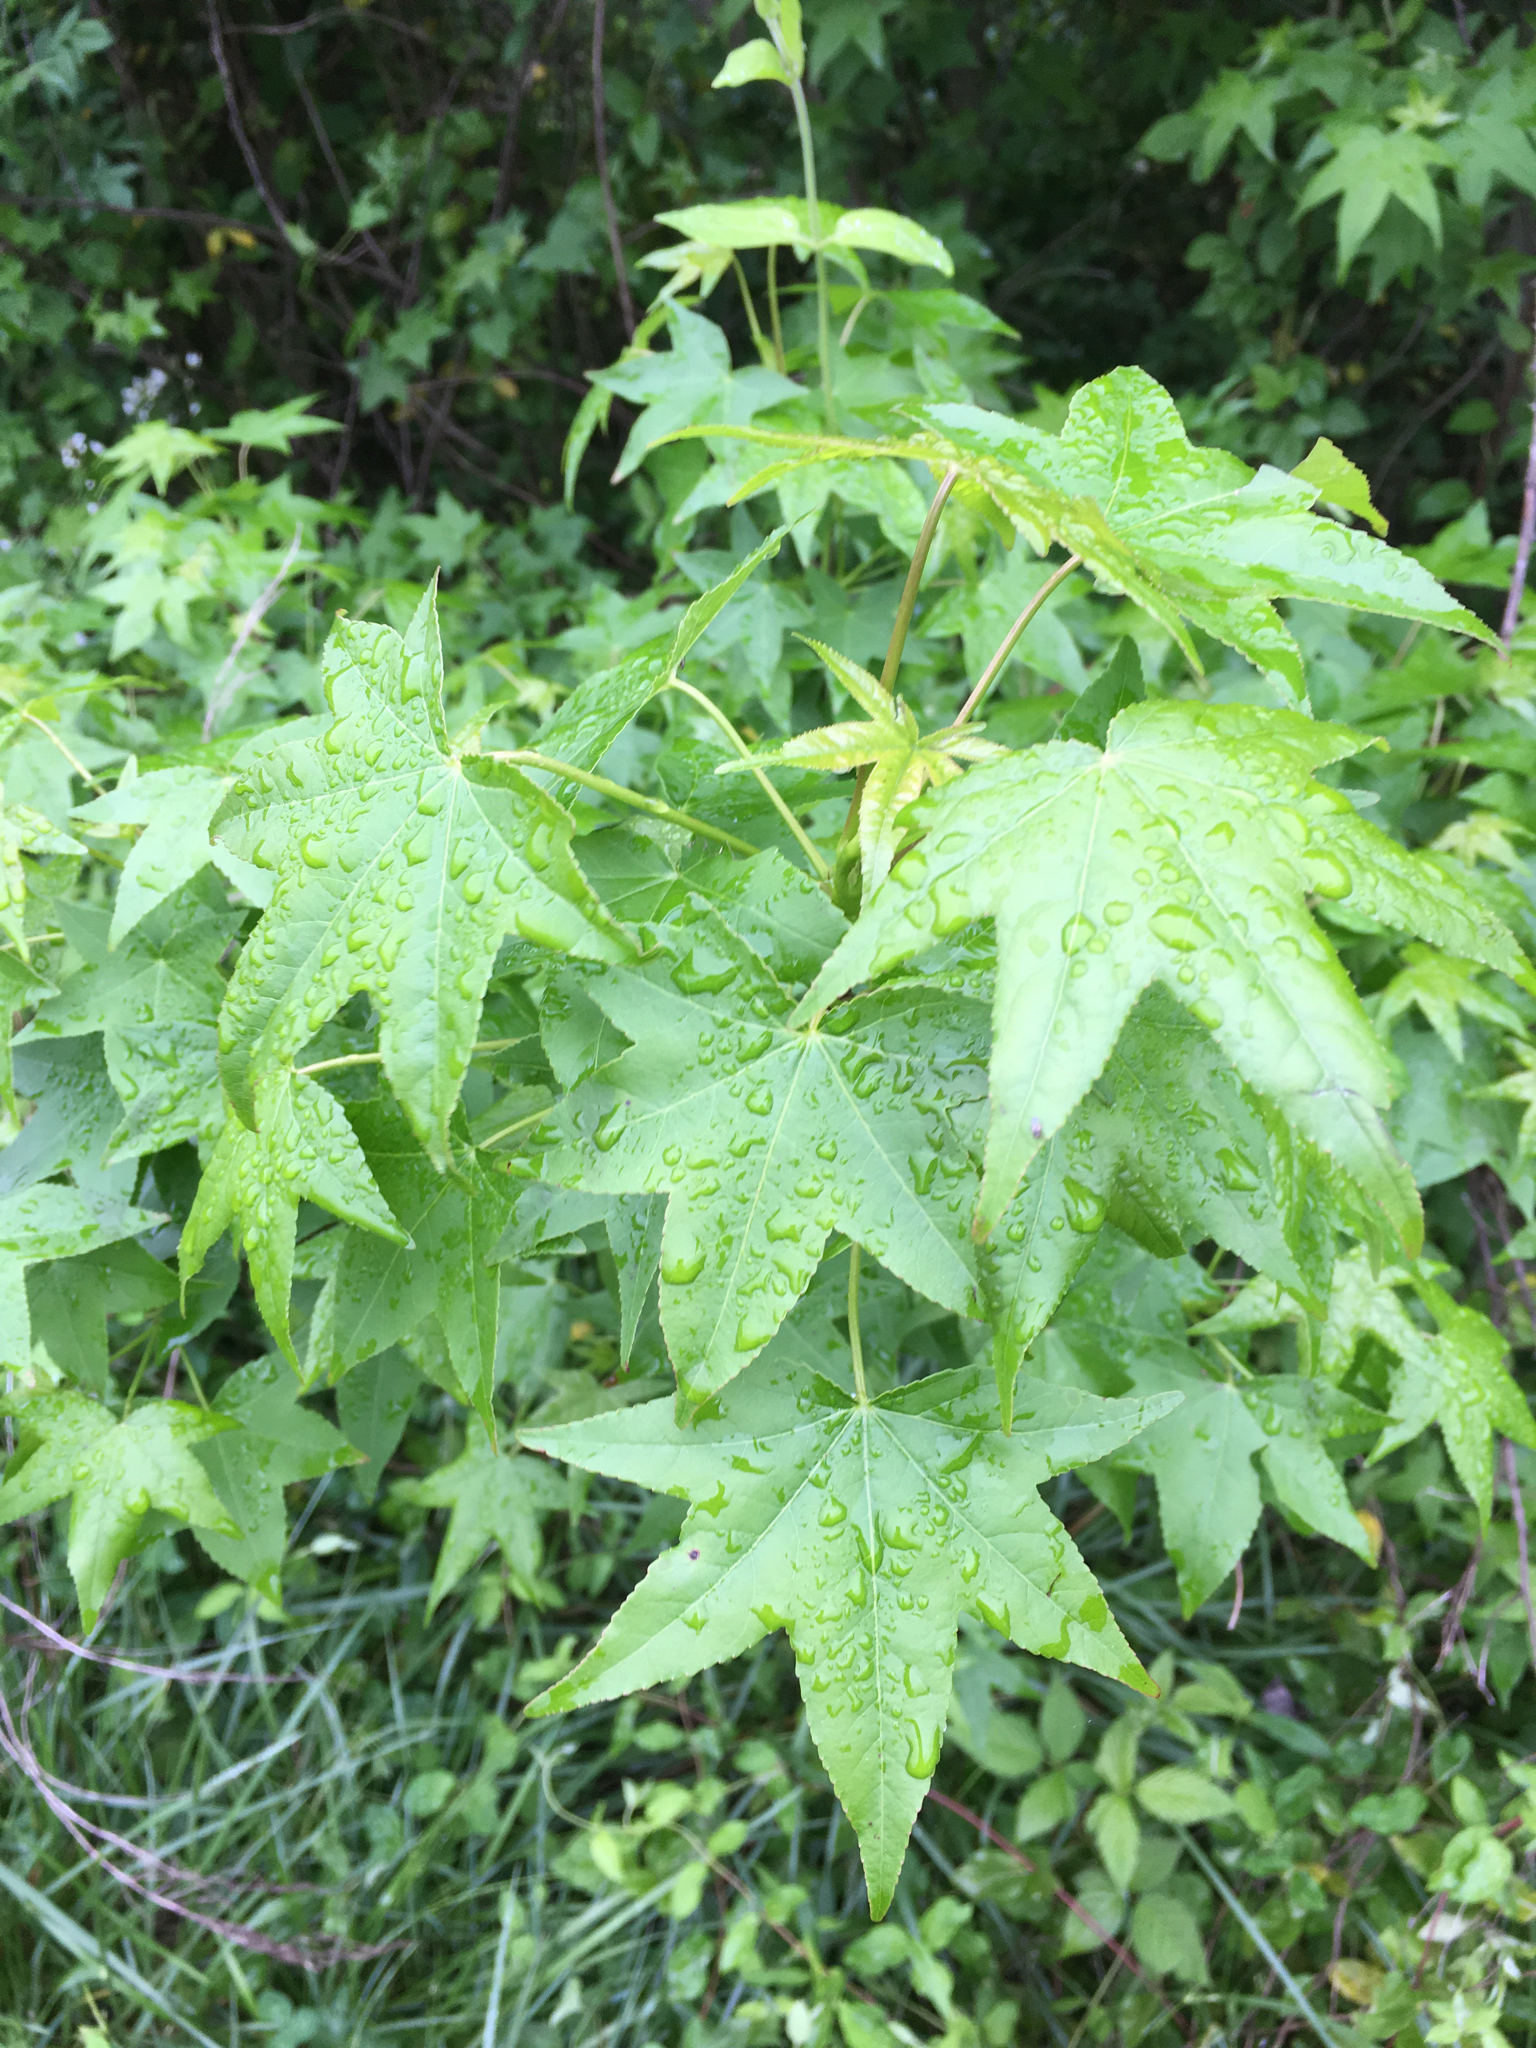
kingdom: Plantae
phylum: Tracheophyta
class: Magnoliopsida
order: Saxifragales
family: Altingiaceae
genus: Liquidambar
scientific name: Liquidambar styraciflua
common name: Sweet gum
